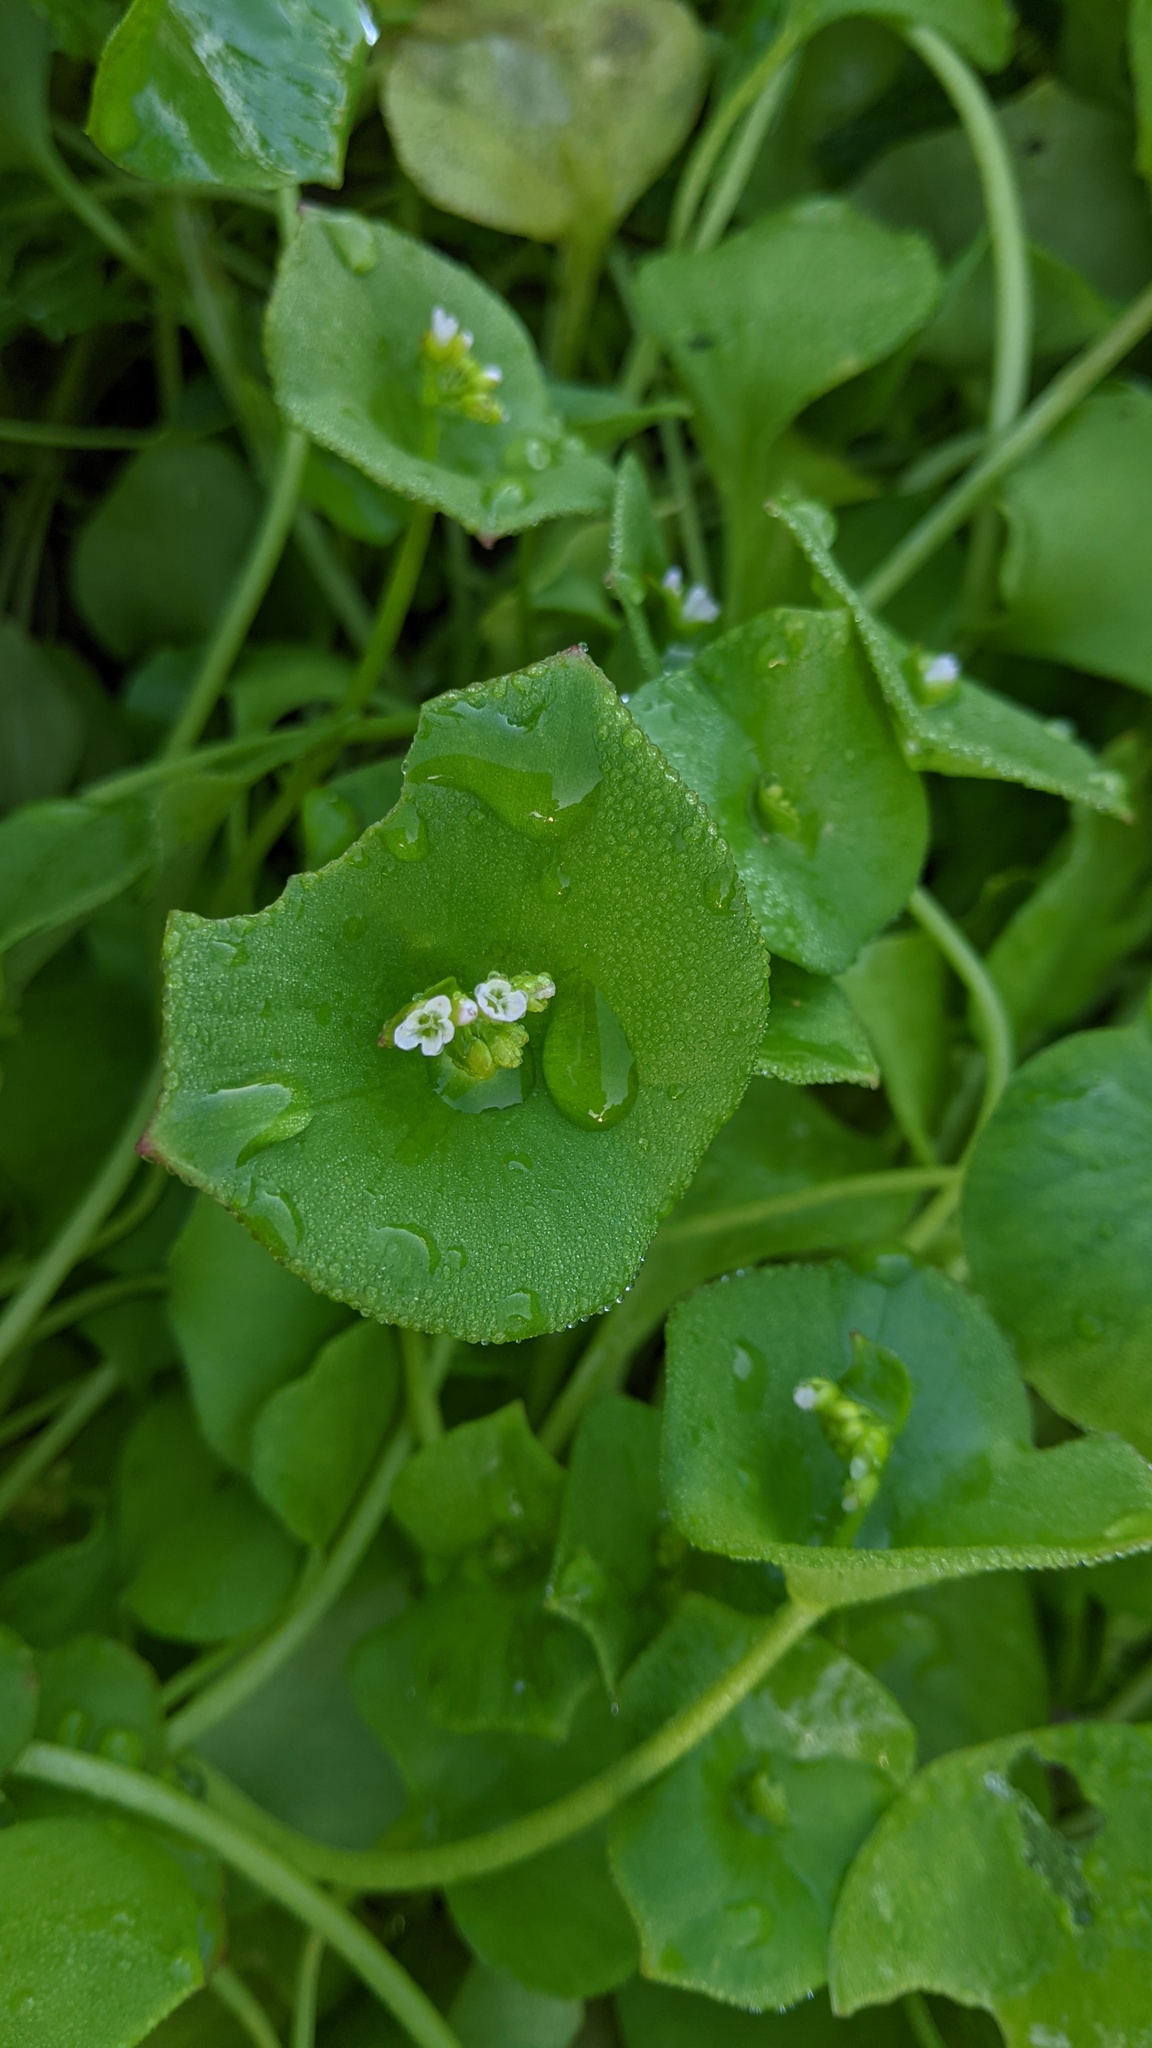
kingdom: Plantae
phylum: Tracheophyta
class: Magnoliopsida
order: Caryophyllales
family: Montiaceae
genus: Claytonia
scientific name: Claytonia perfoliata
